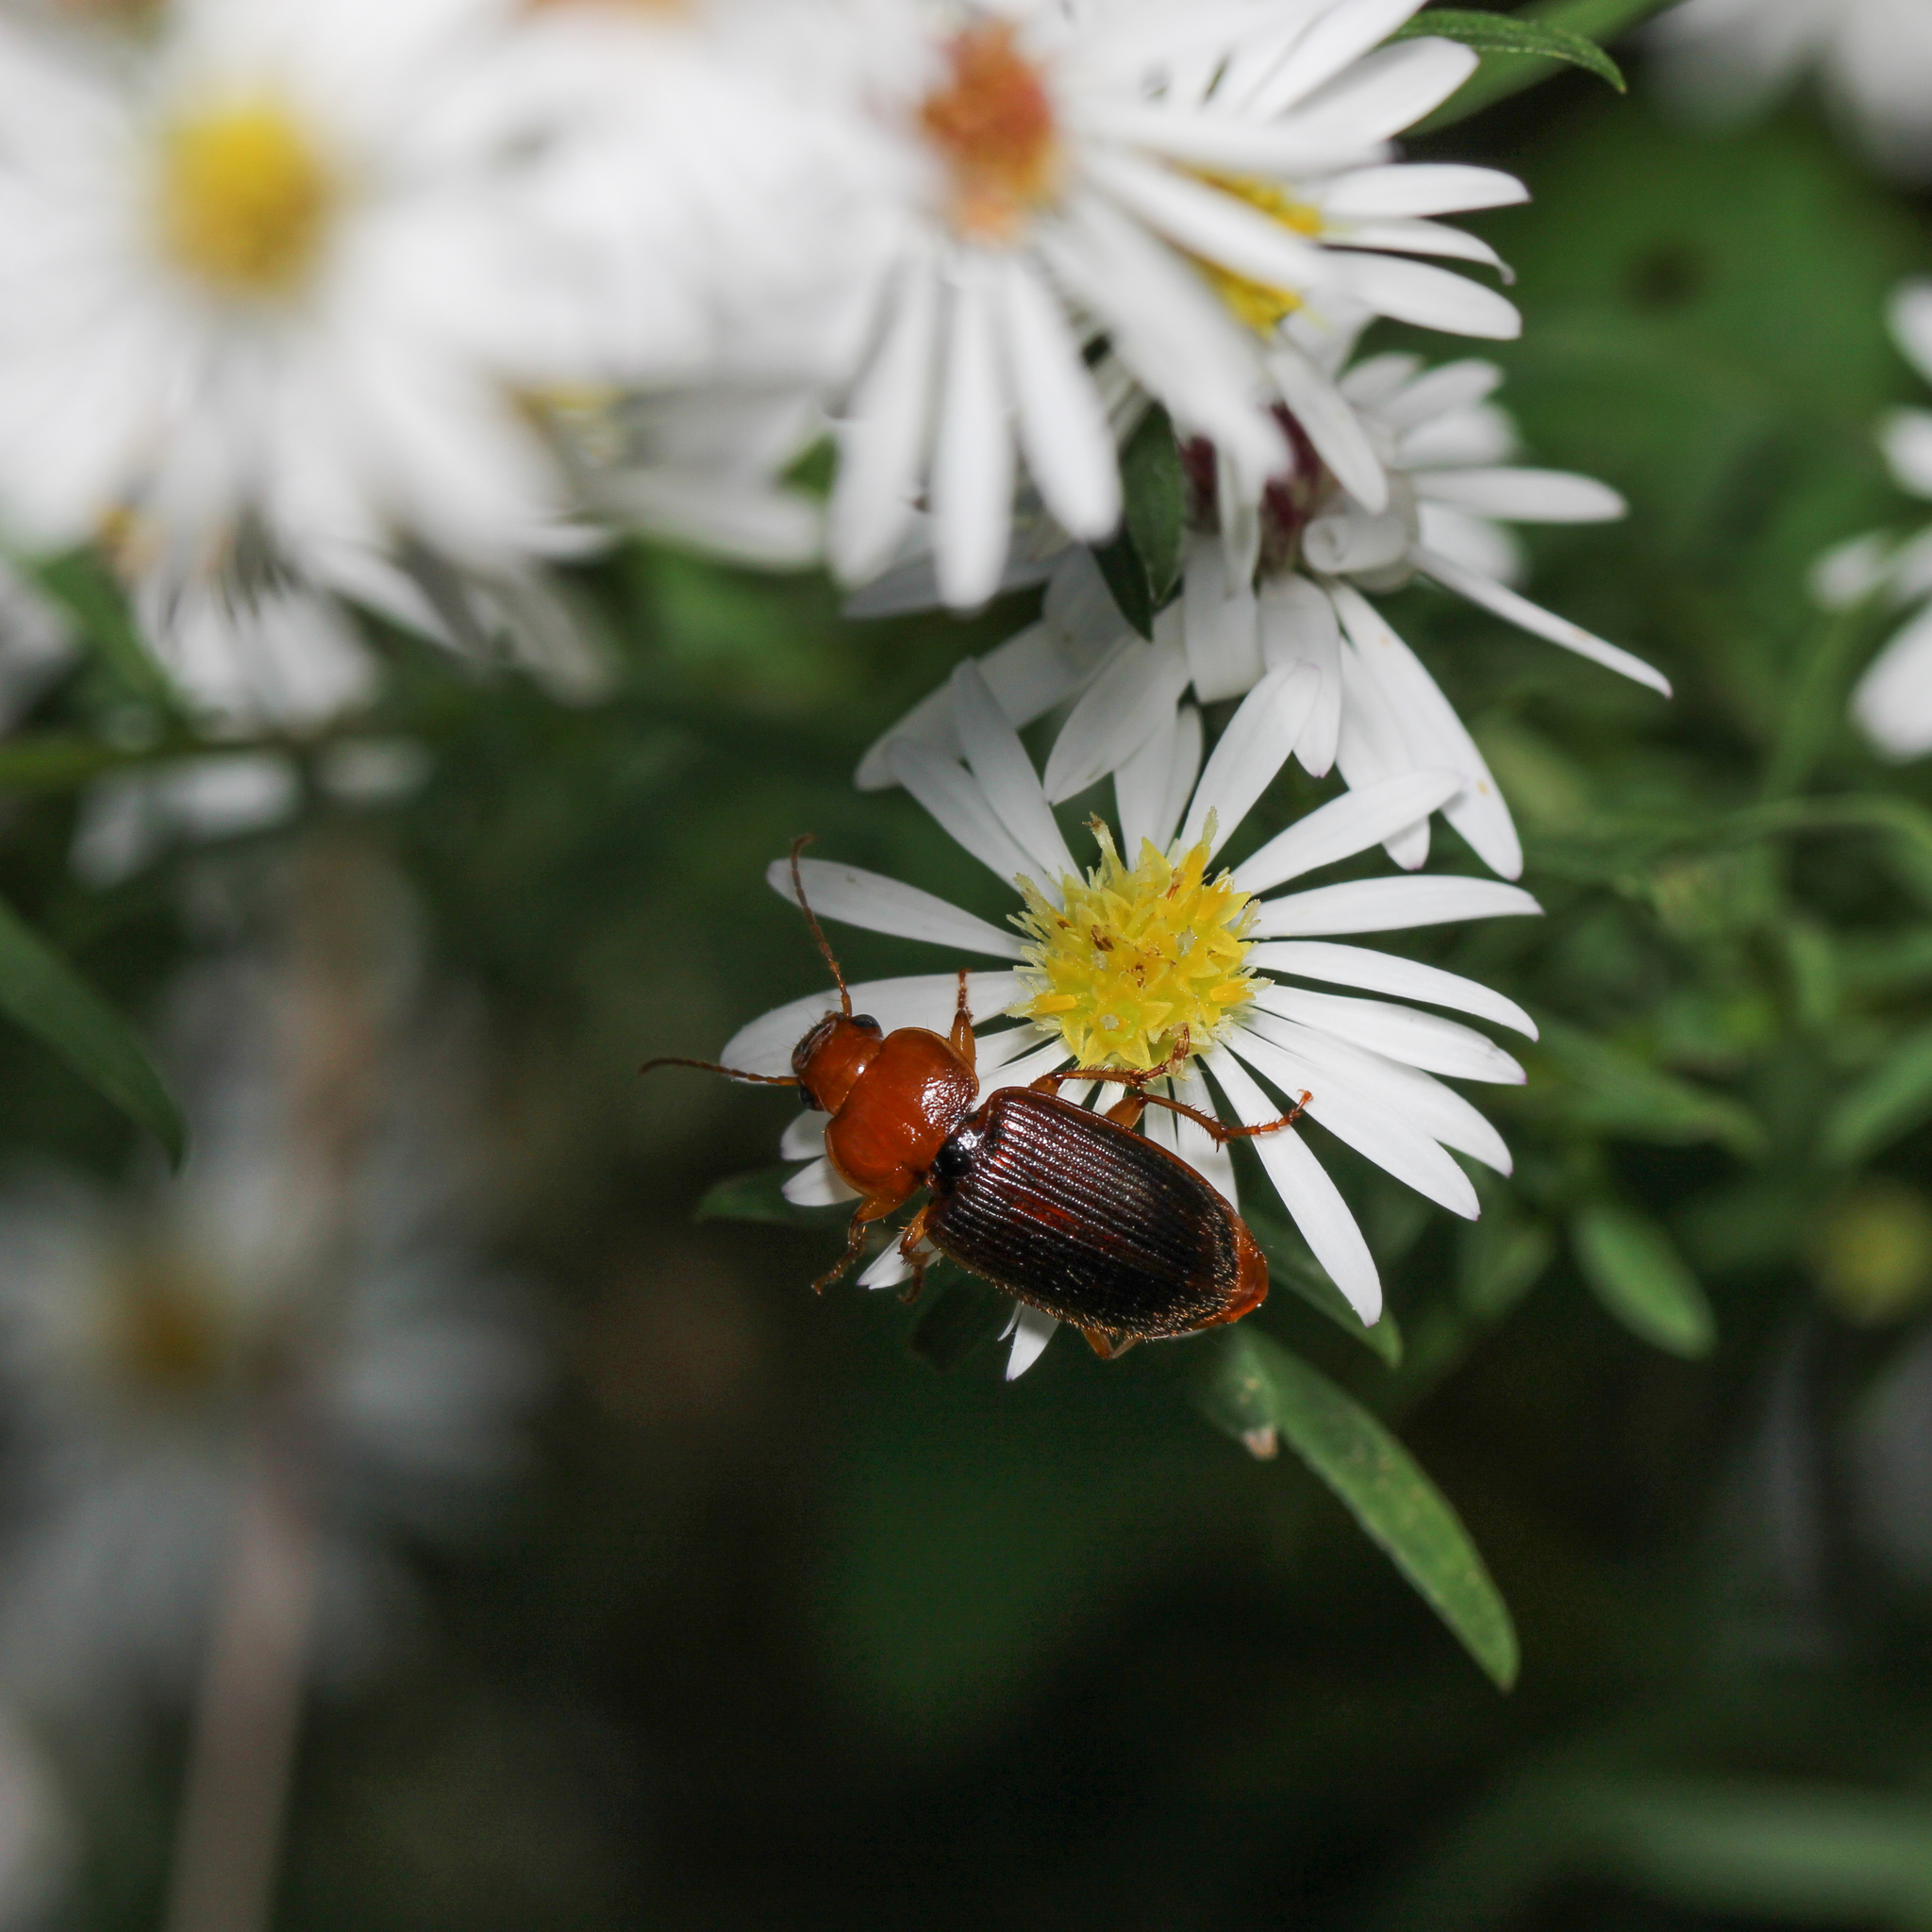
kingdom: Animalia
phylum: Arthropoda
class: Insecta
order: Coleoptera
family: Carabidae
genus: Amphasia
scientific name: Amphasia interstitialis
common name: Red-headed ground beetle
